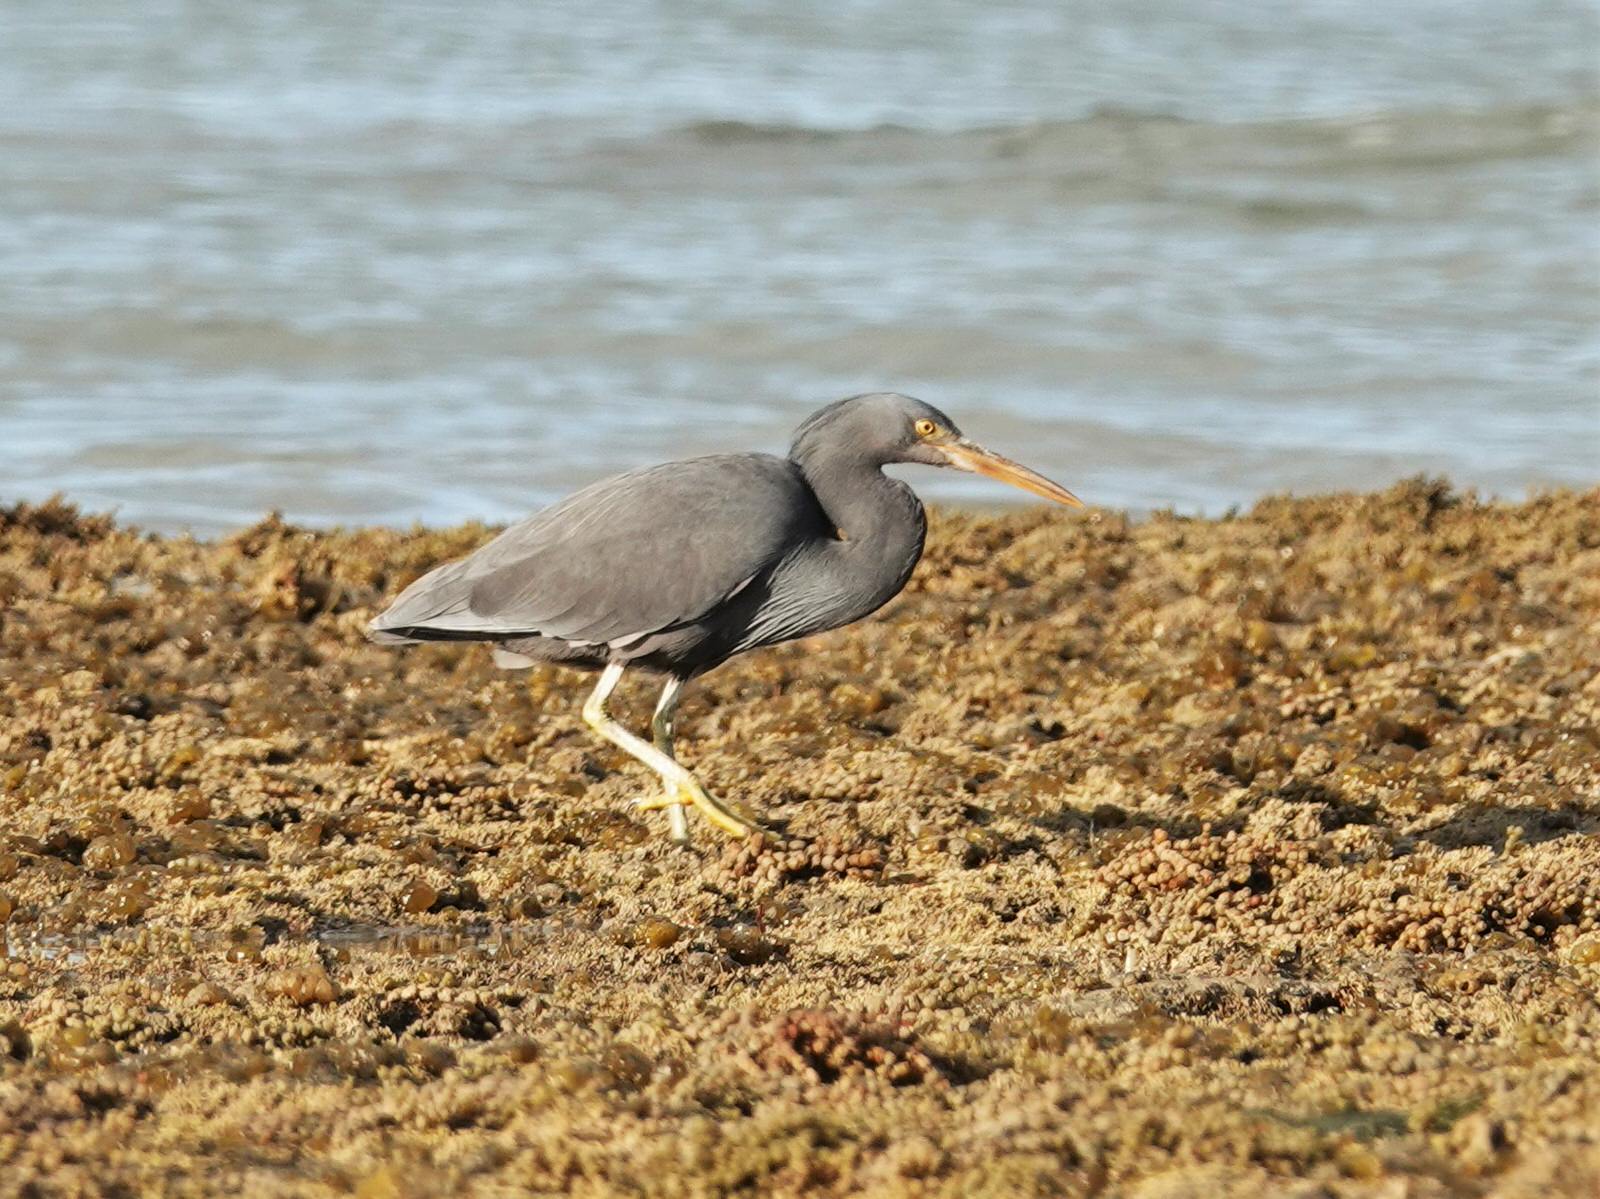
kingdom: Animalia
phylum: Chordata
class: Aves
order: Pelecaniformes
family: Ardeidae
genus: Egretta
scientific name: Egretta sacra
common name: Pacific reef heron
